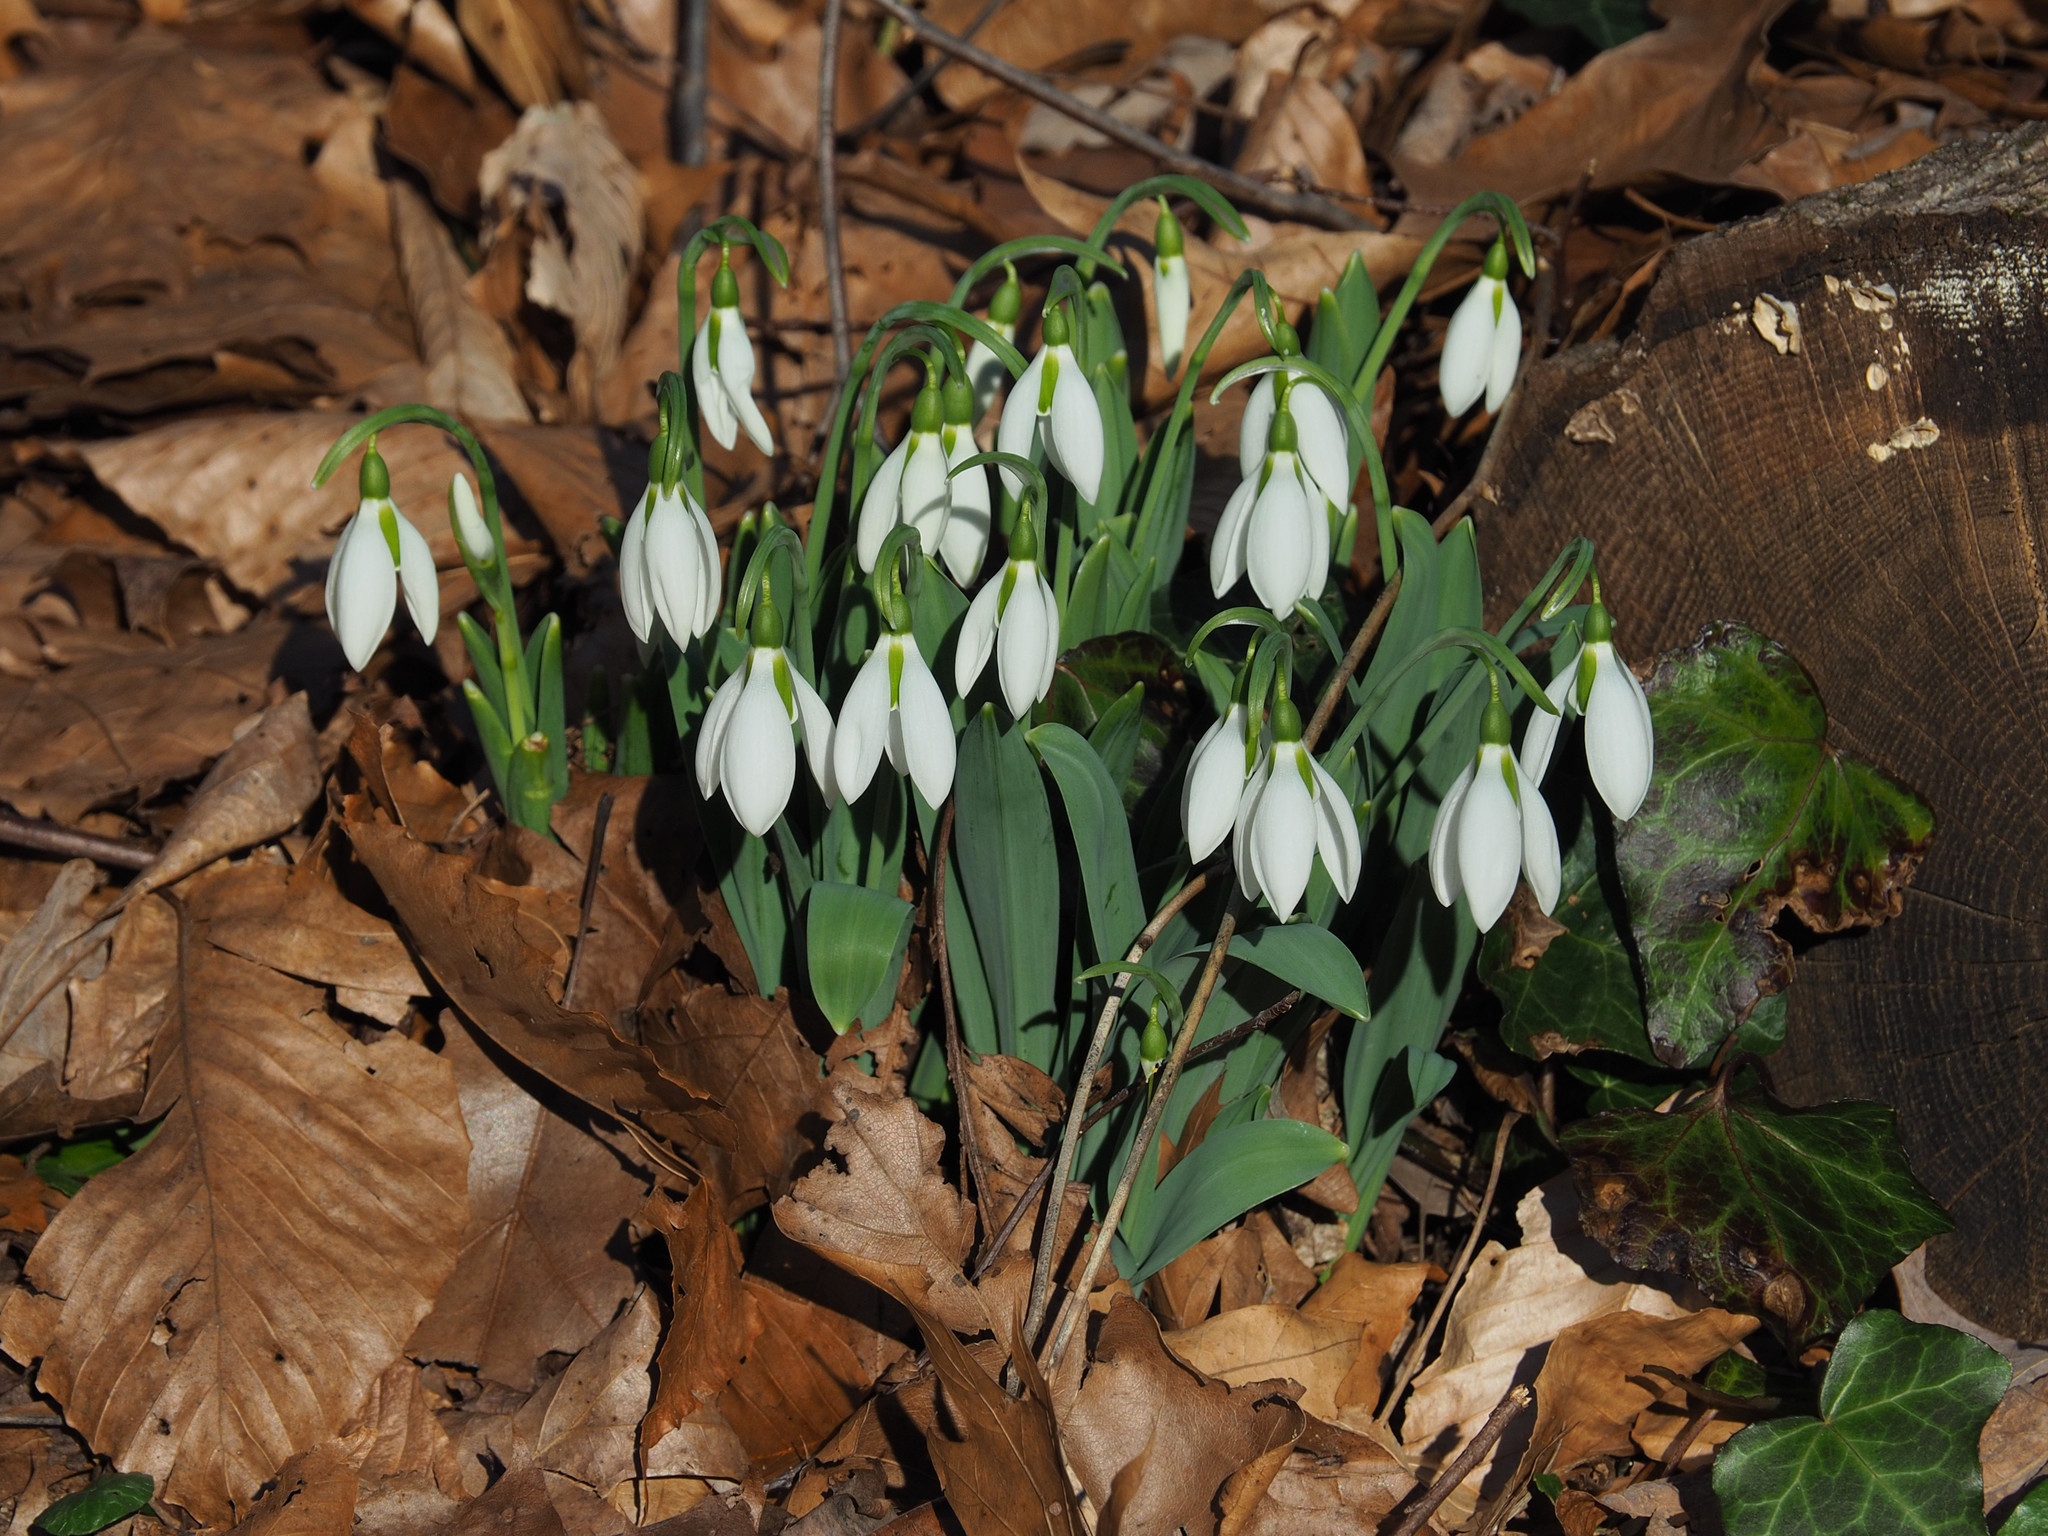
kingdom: Plantae
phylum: Tracheophyta
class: Liliopsida
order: Asparagales
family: Amaryllidaceae
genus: Galanthus
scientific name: Galanthus elwesii
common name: Greater snowdrop
